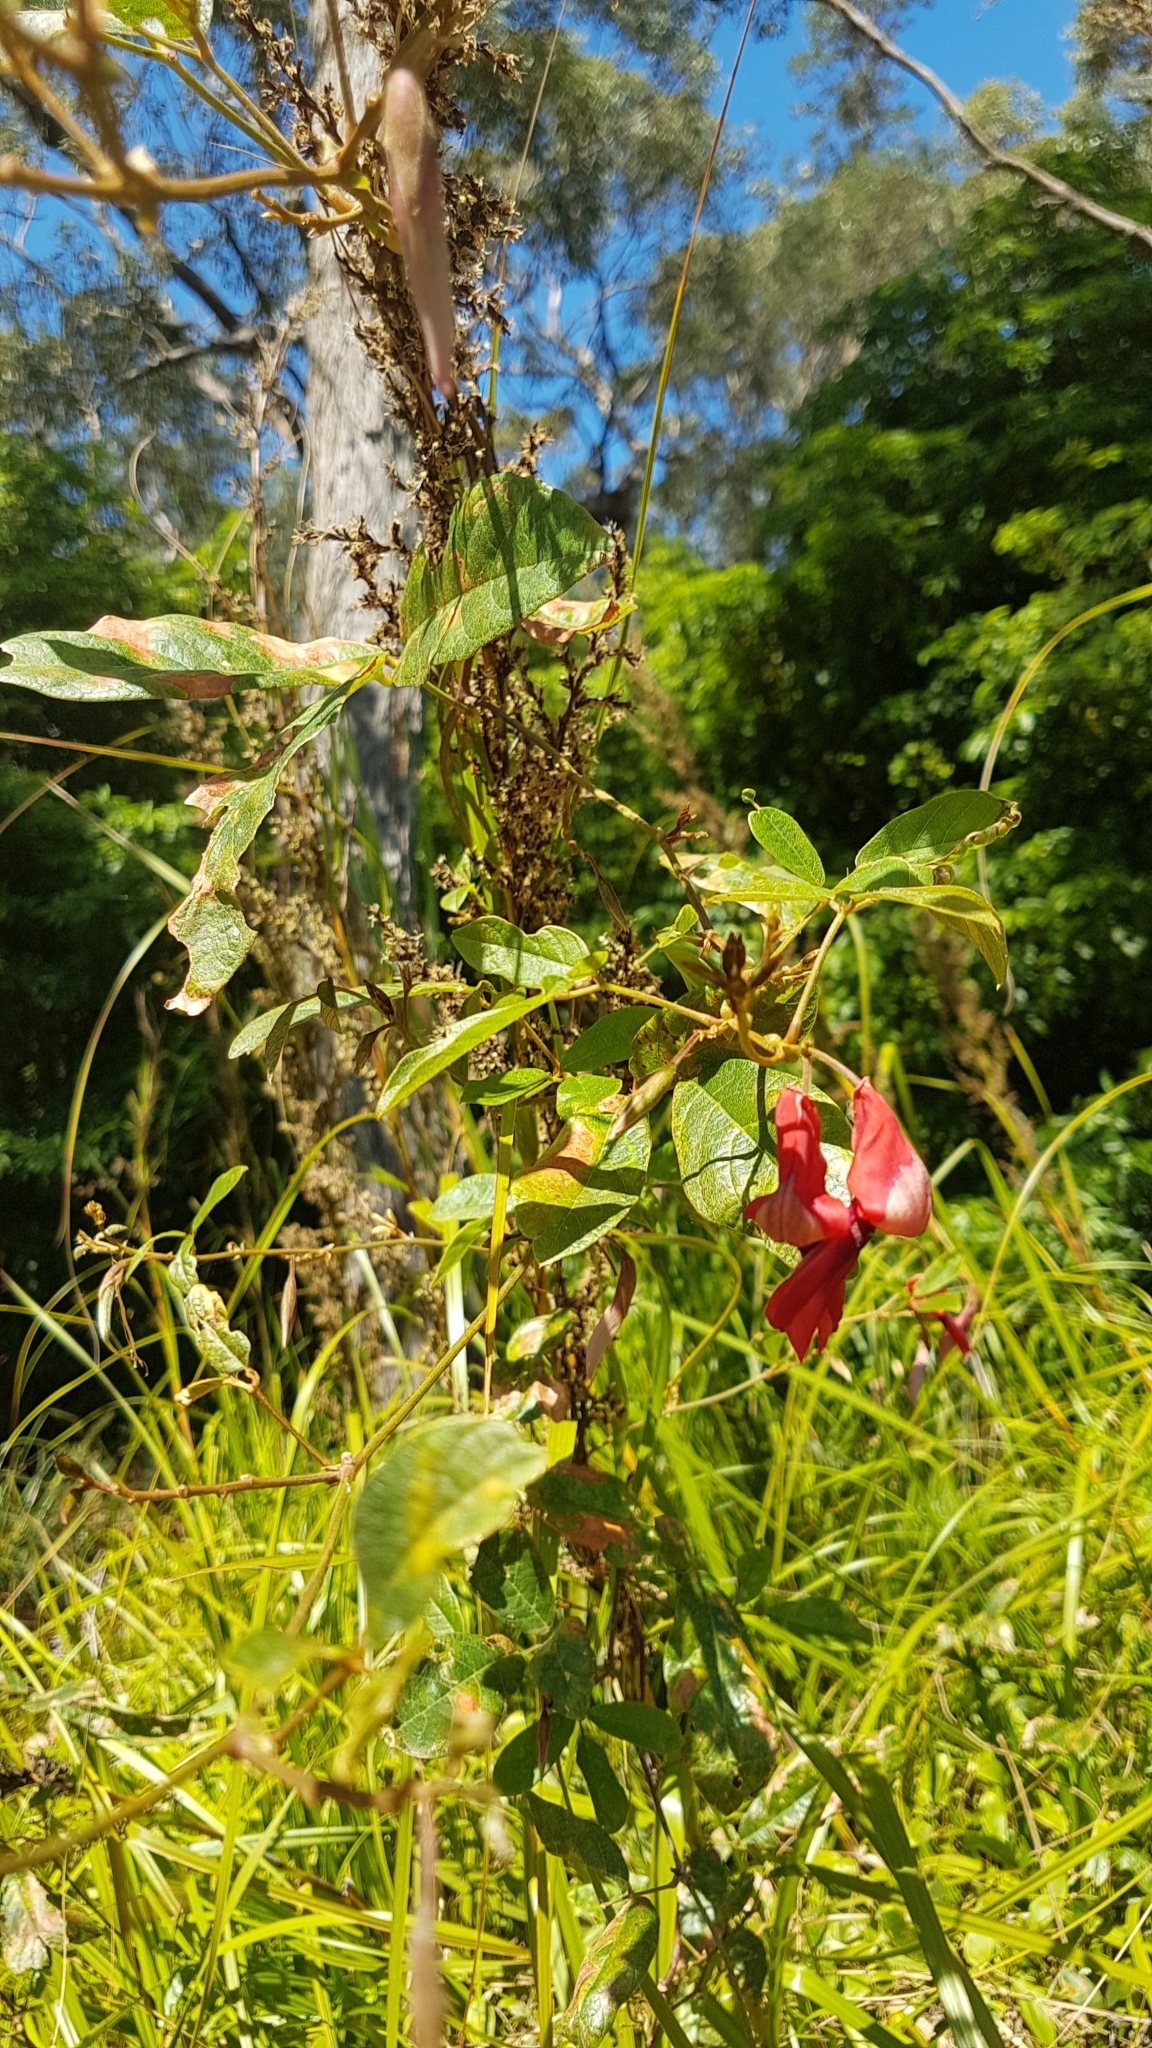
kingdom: Plantae
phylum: Tracheophyta
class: Magnoliopsida
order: Fabales
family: Fabaceae
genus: Kennedia
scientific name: Kennedia rubicunda
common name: Red kennedy-pea
